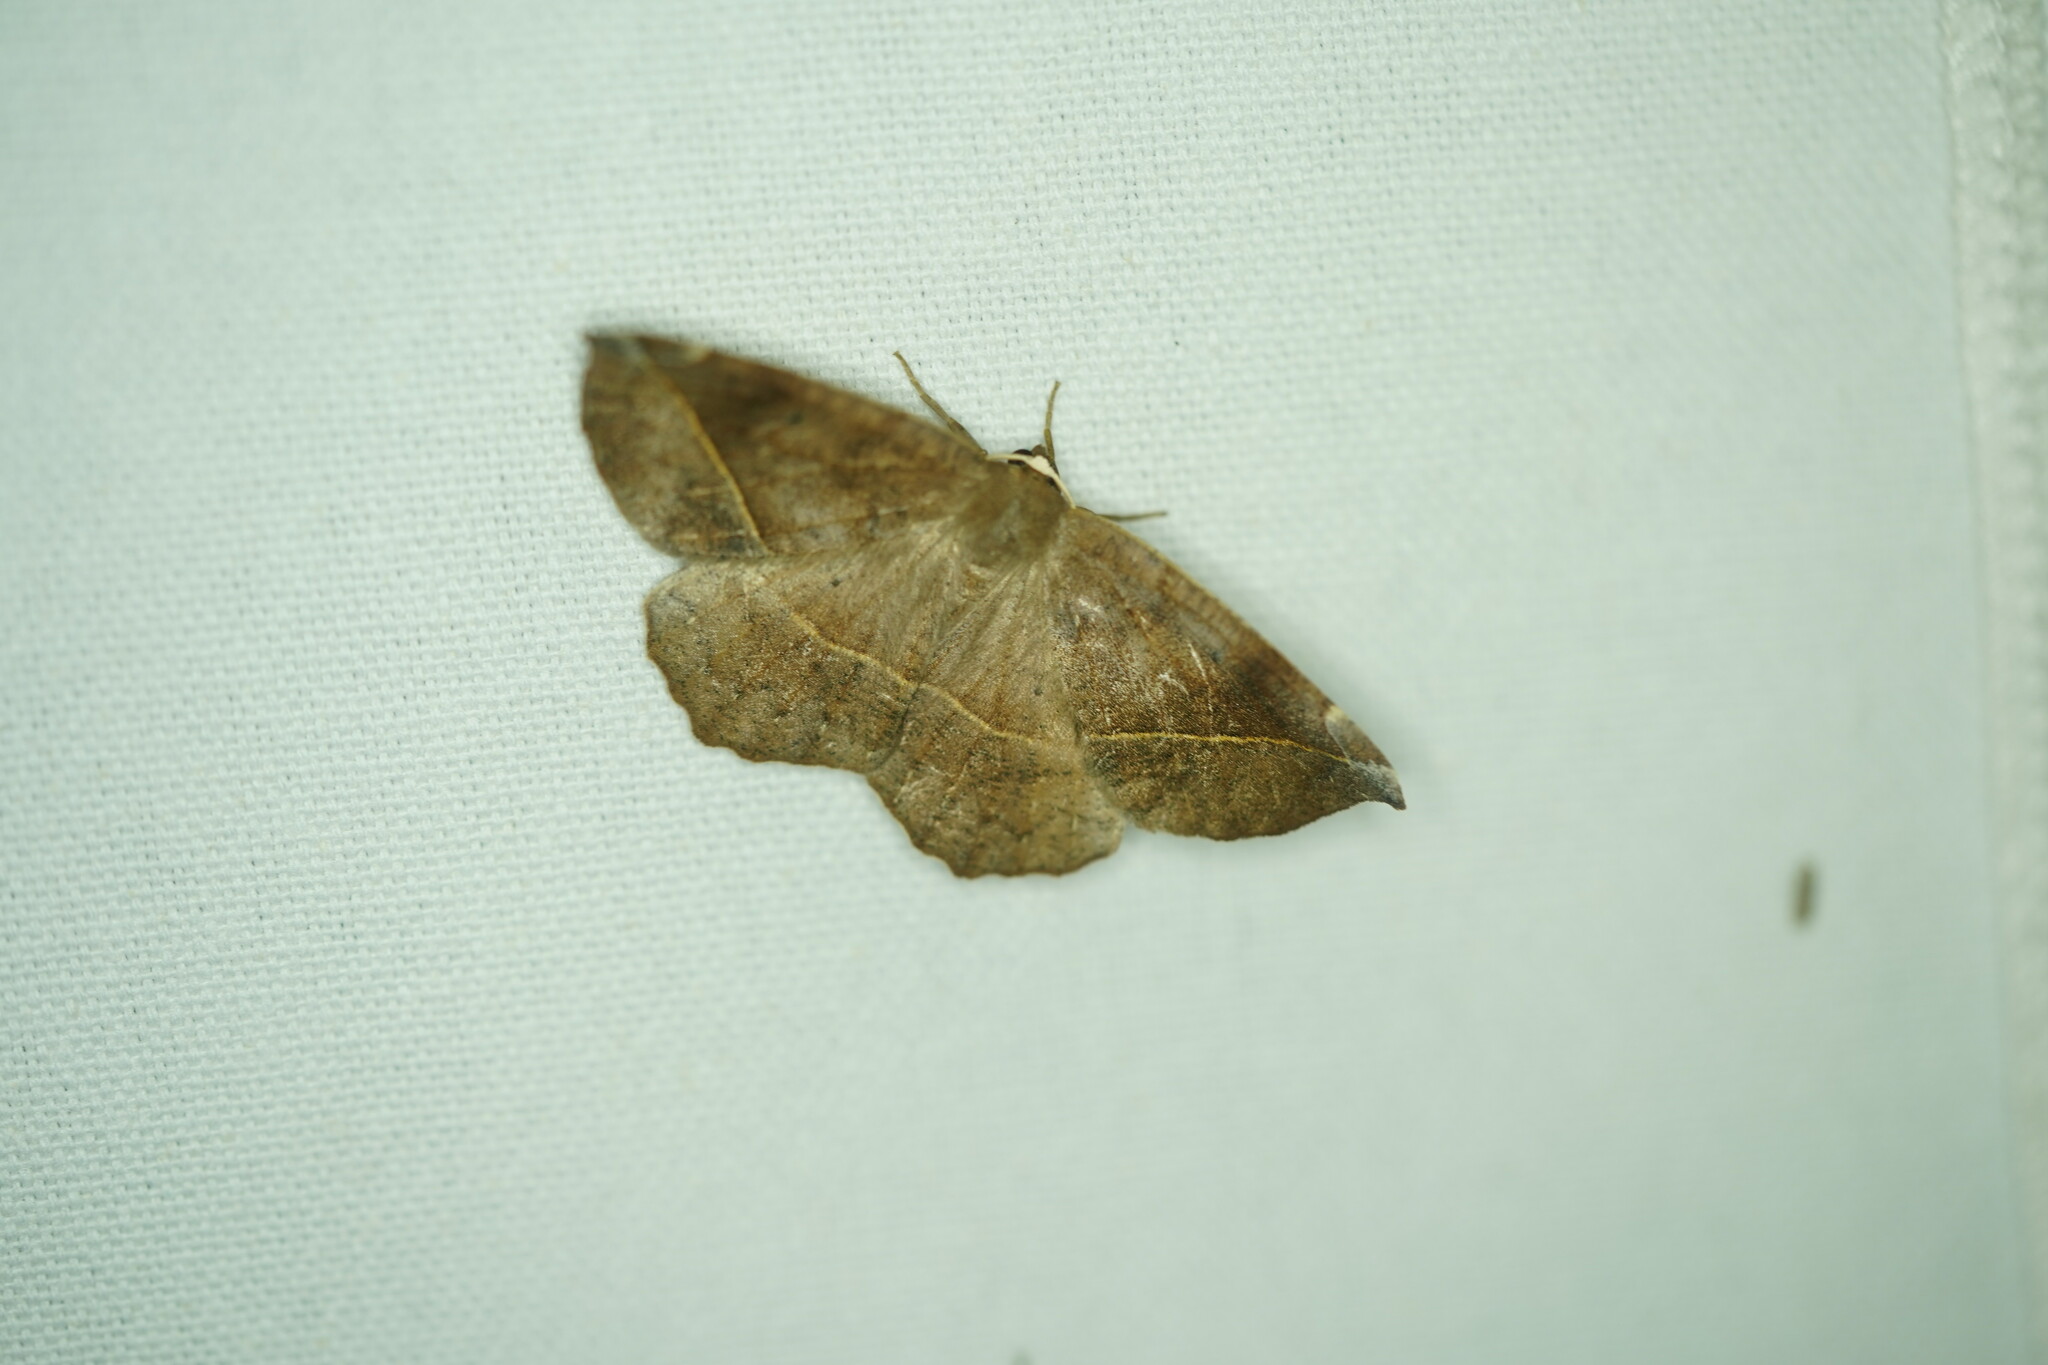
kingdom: Animalia
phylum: Arthropoda
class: Insecta
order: Lepidoptera
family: Geometridae
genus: Eutrapela
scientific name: Eutrapela clemataria
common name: Curved-toothed geometer
